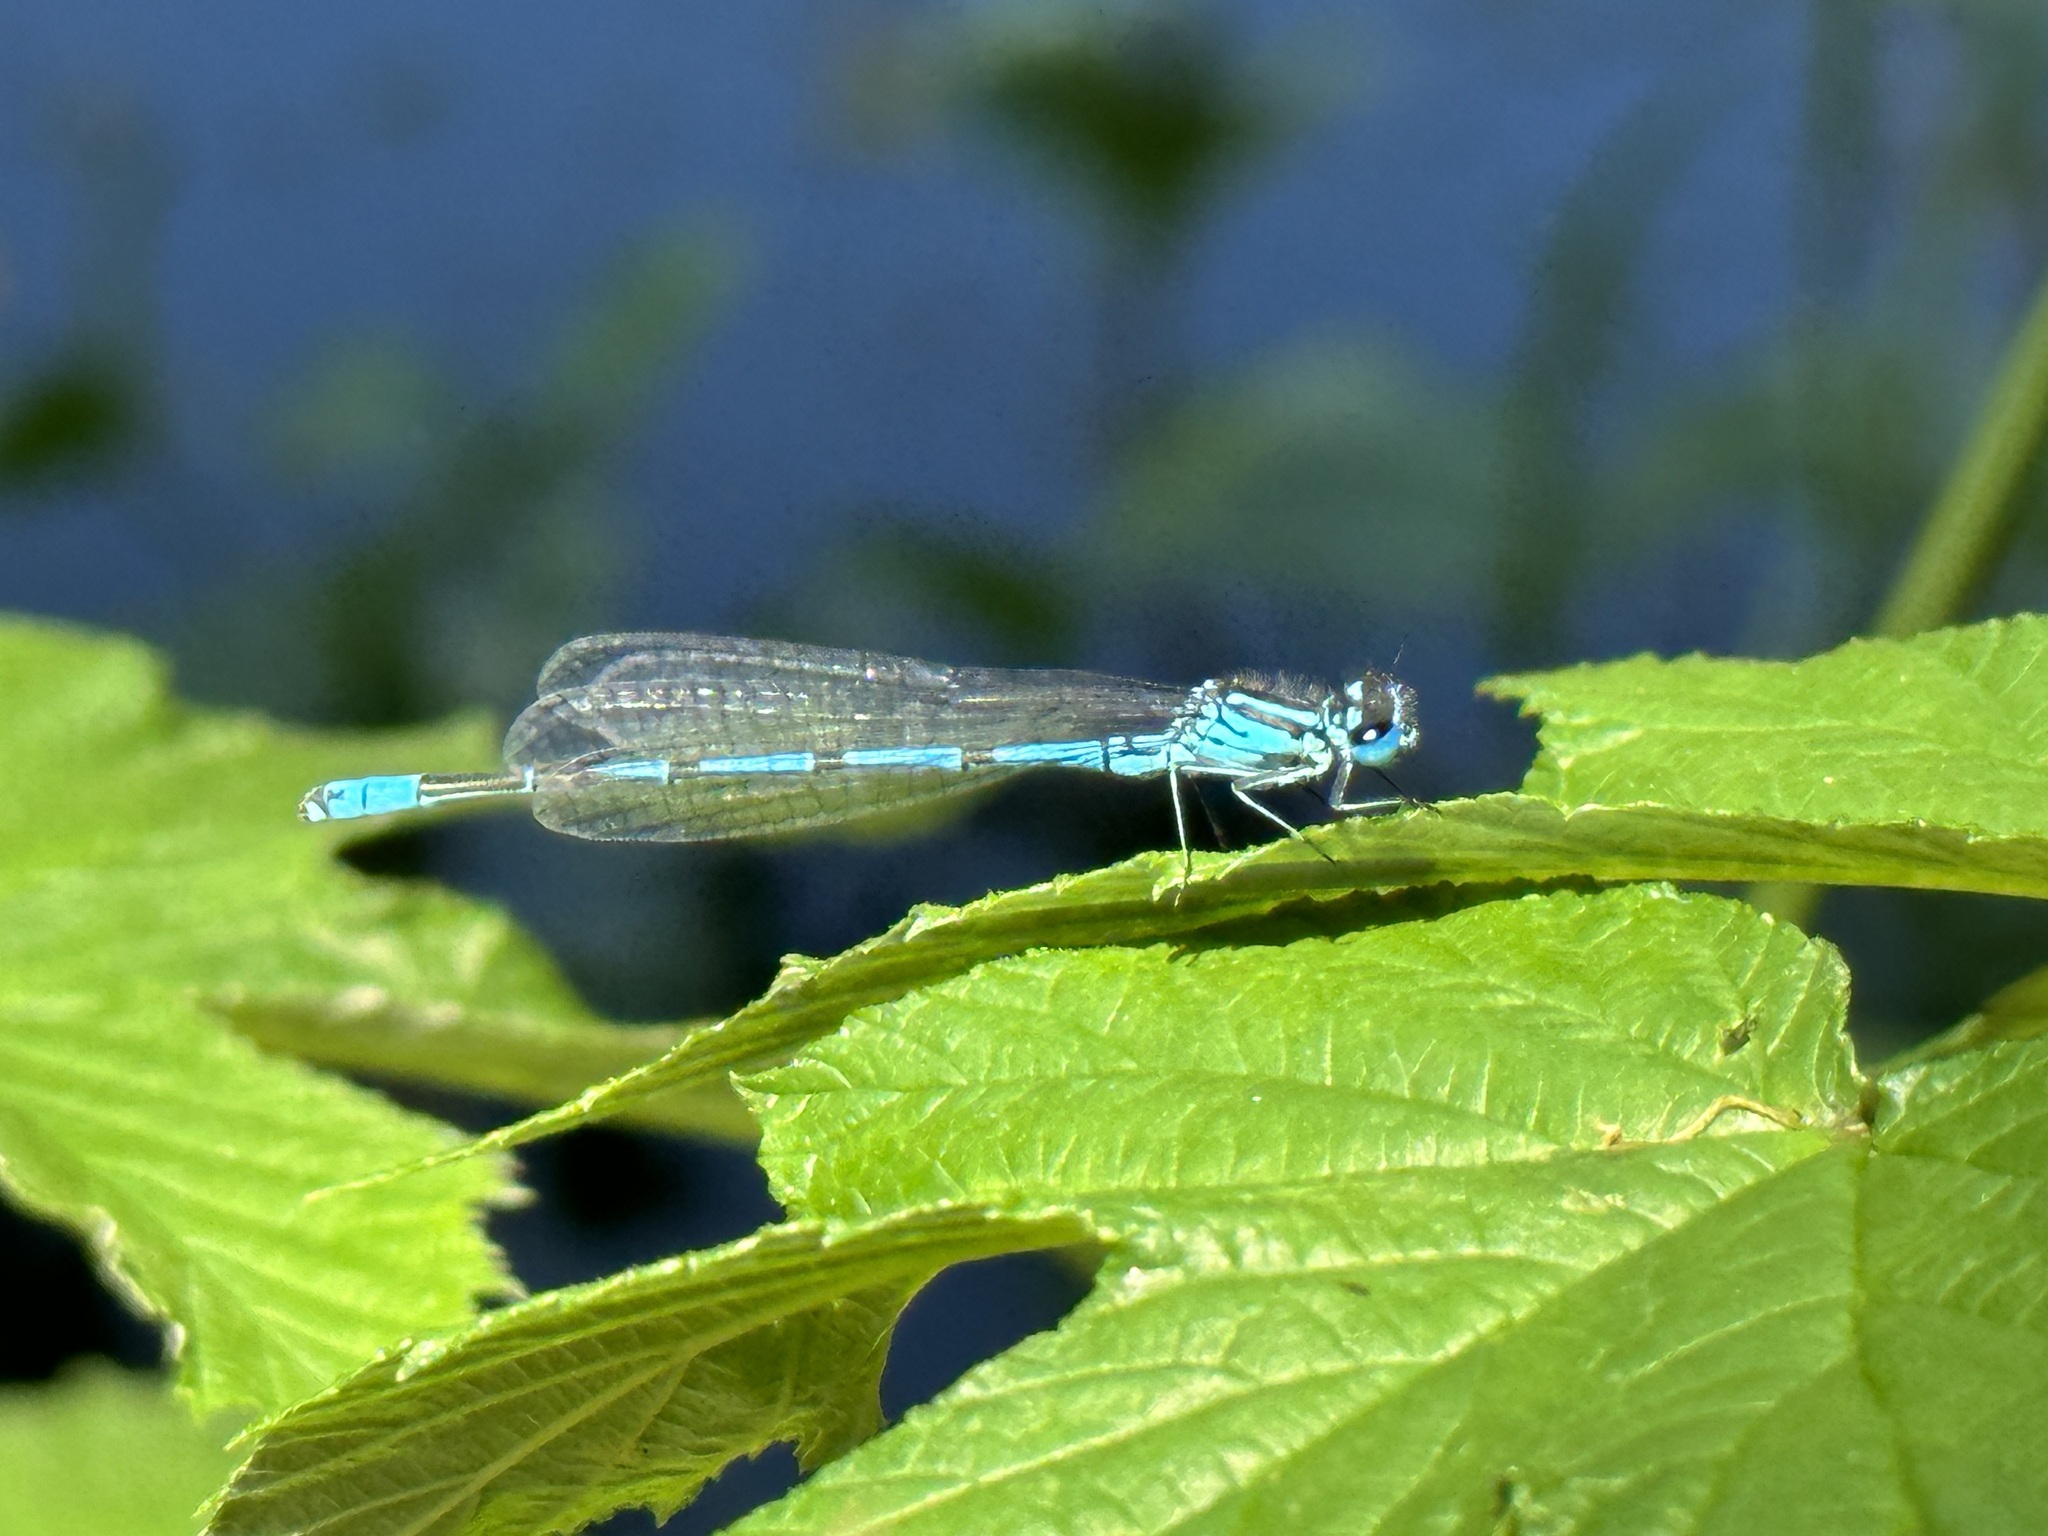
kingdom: Animalia
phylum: Arthropoda
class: Insecta
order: Odonata
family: Coenagrionidae
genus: Coenagrion
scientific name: Coenagrion puella
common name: Azure damselfly
